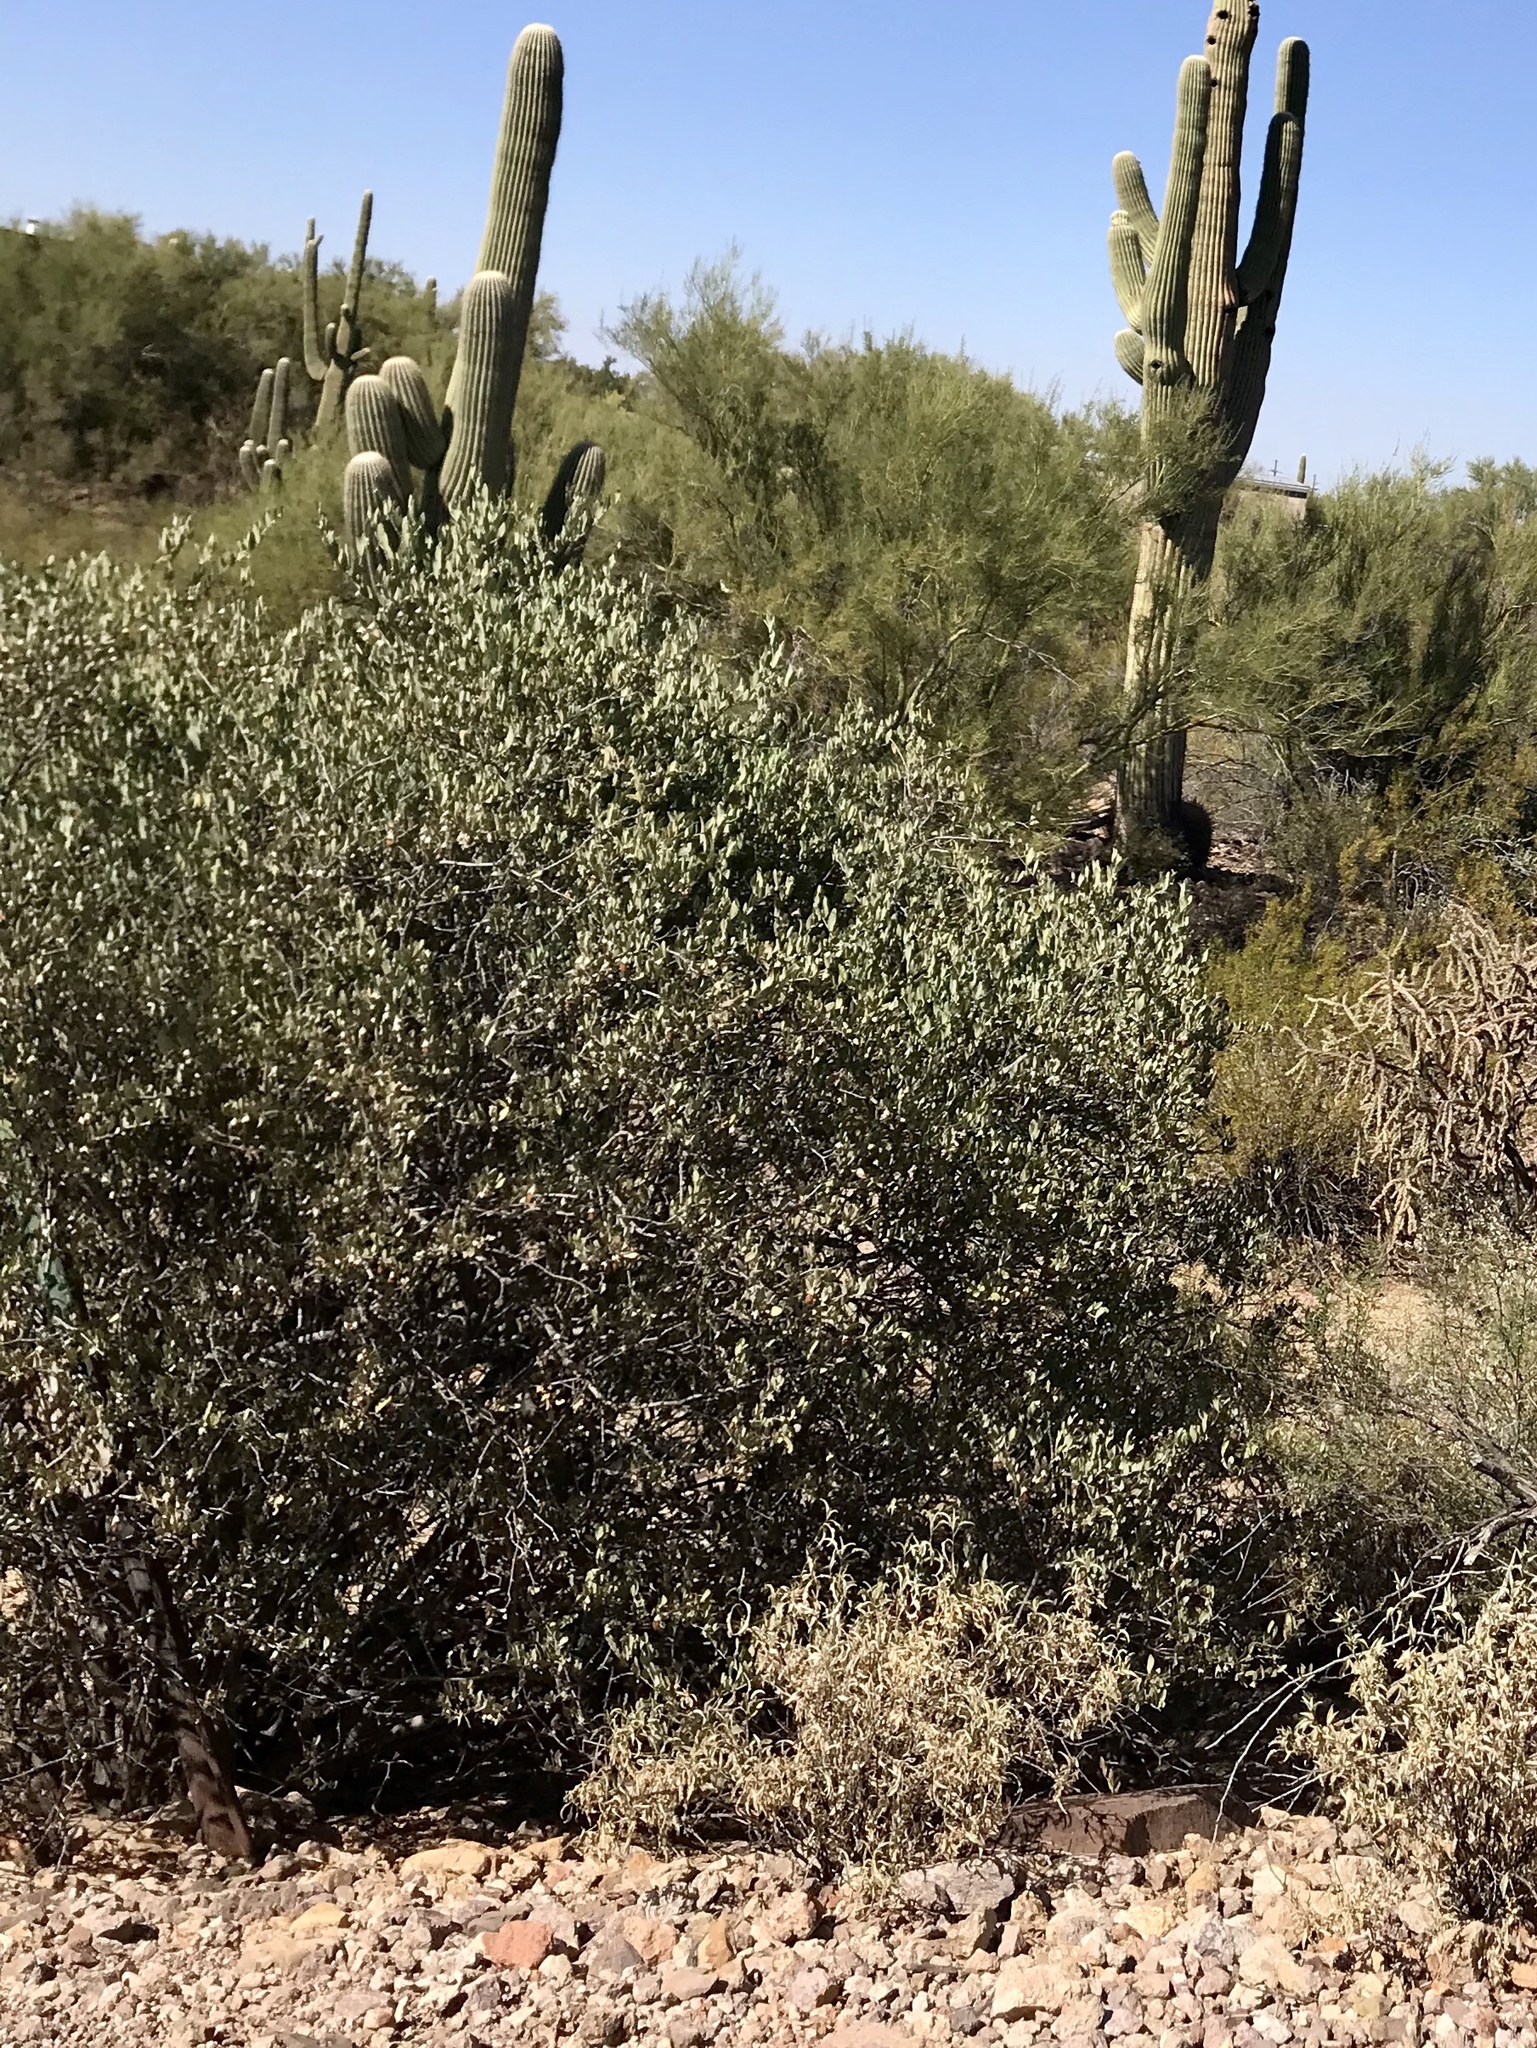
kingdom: Plantae
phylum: Tracheophyta
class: Magnoliopsida
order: Caryophyllales
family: Simmondsiaceae
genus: Simmondsia
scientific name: Simmondsia chinensis
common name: Jojoba
